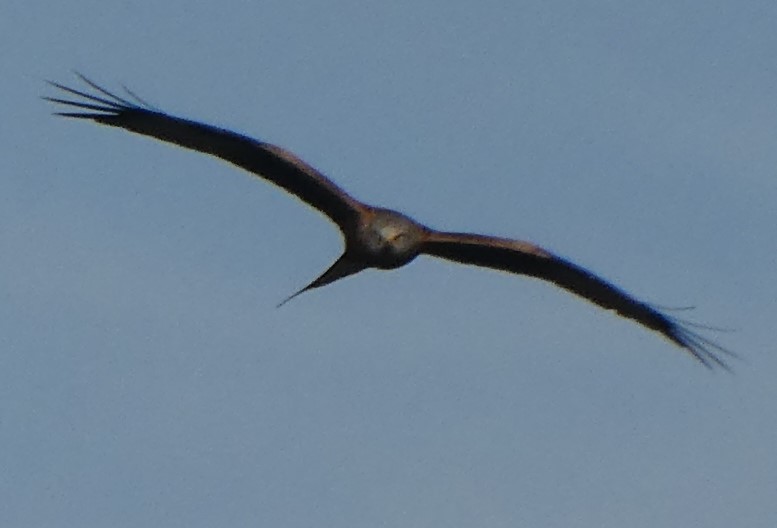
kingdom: Animalia
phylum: Chordata
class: Aves
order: Accipitriformes
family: Accipitridae
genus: Milvus
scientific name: Milvus milvus
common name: Red kite
